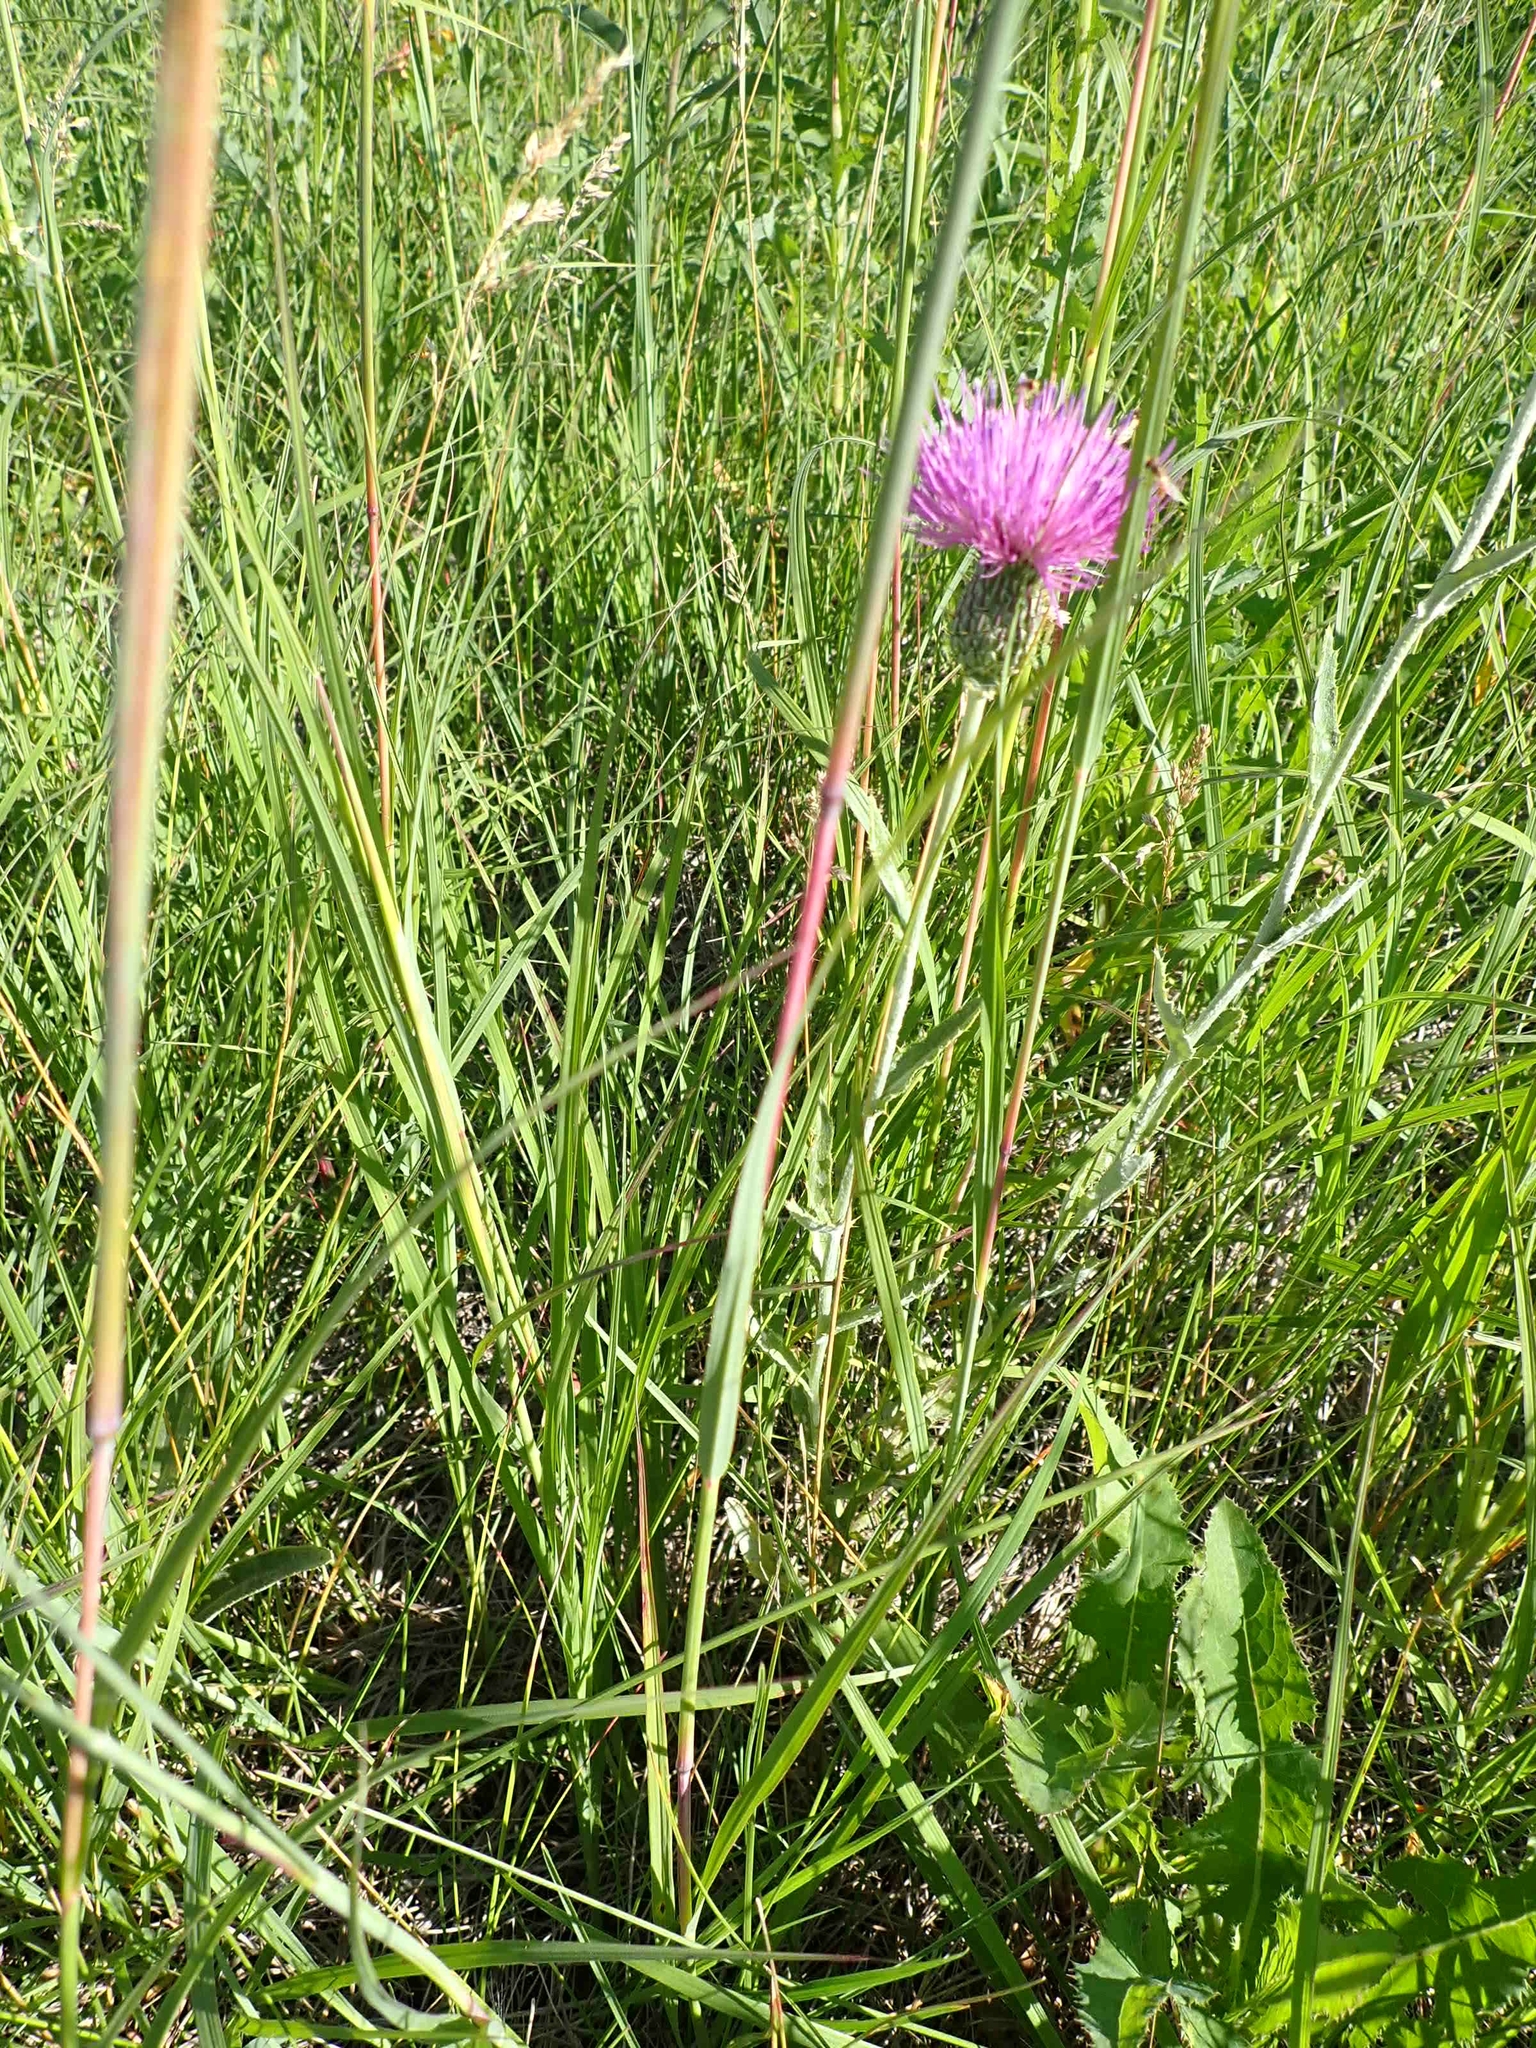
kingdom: Plantae
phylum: Tracheophyta
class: Magnoliopsida
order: Asterales
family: Asteraceae
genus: Cirsium
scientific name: Cirsium flodmanii
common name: Flodman's thistle
